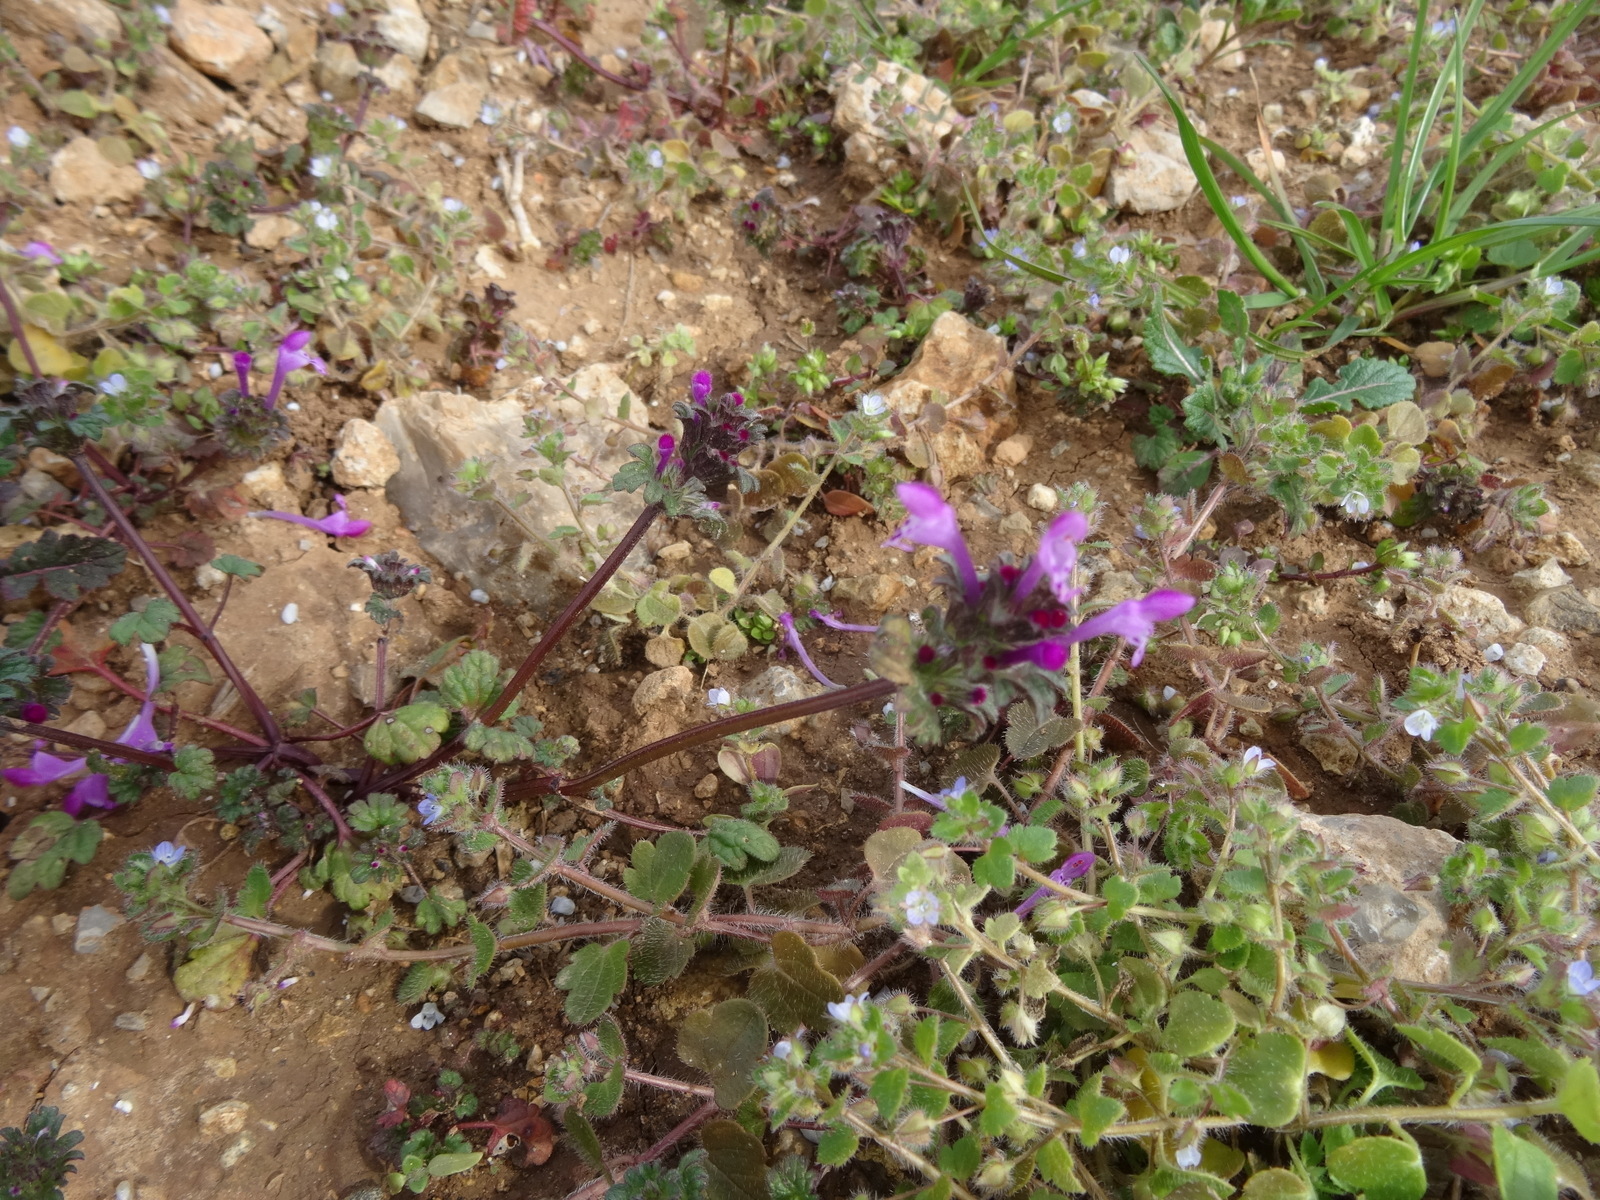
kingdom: Plantae
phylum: Tracheophyta
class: Magnoliopsida
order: Lamiales
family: Lamiaceae
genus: Lamium
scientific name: Lamium amplexicaule
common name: Henbit dead-nettle
